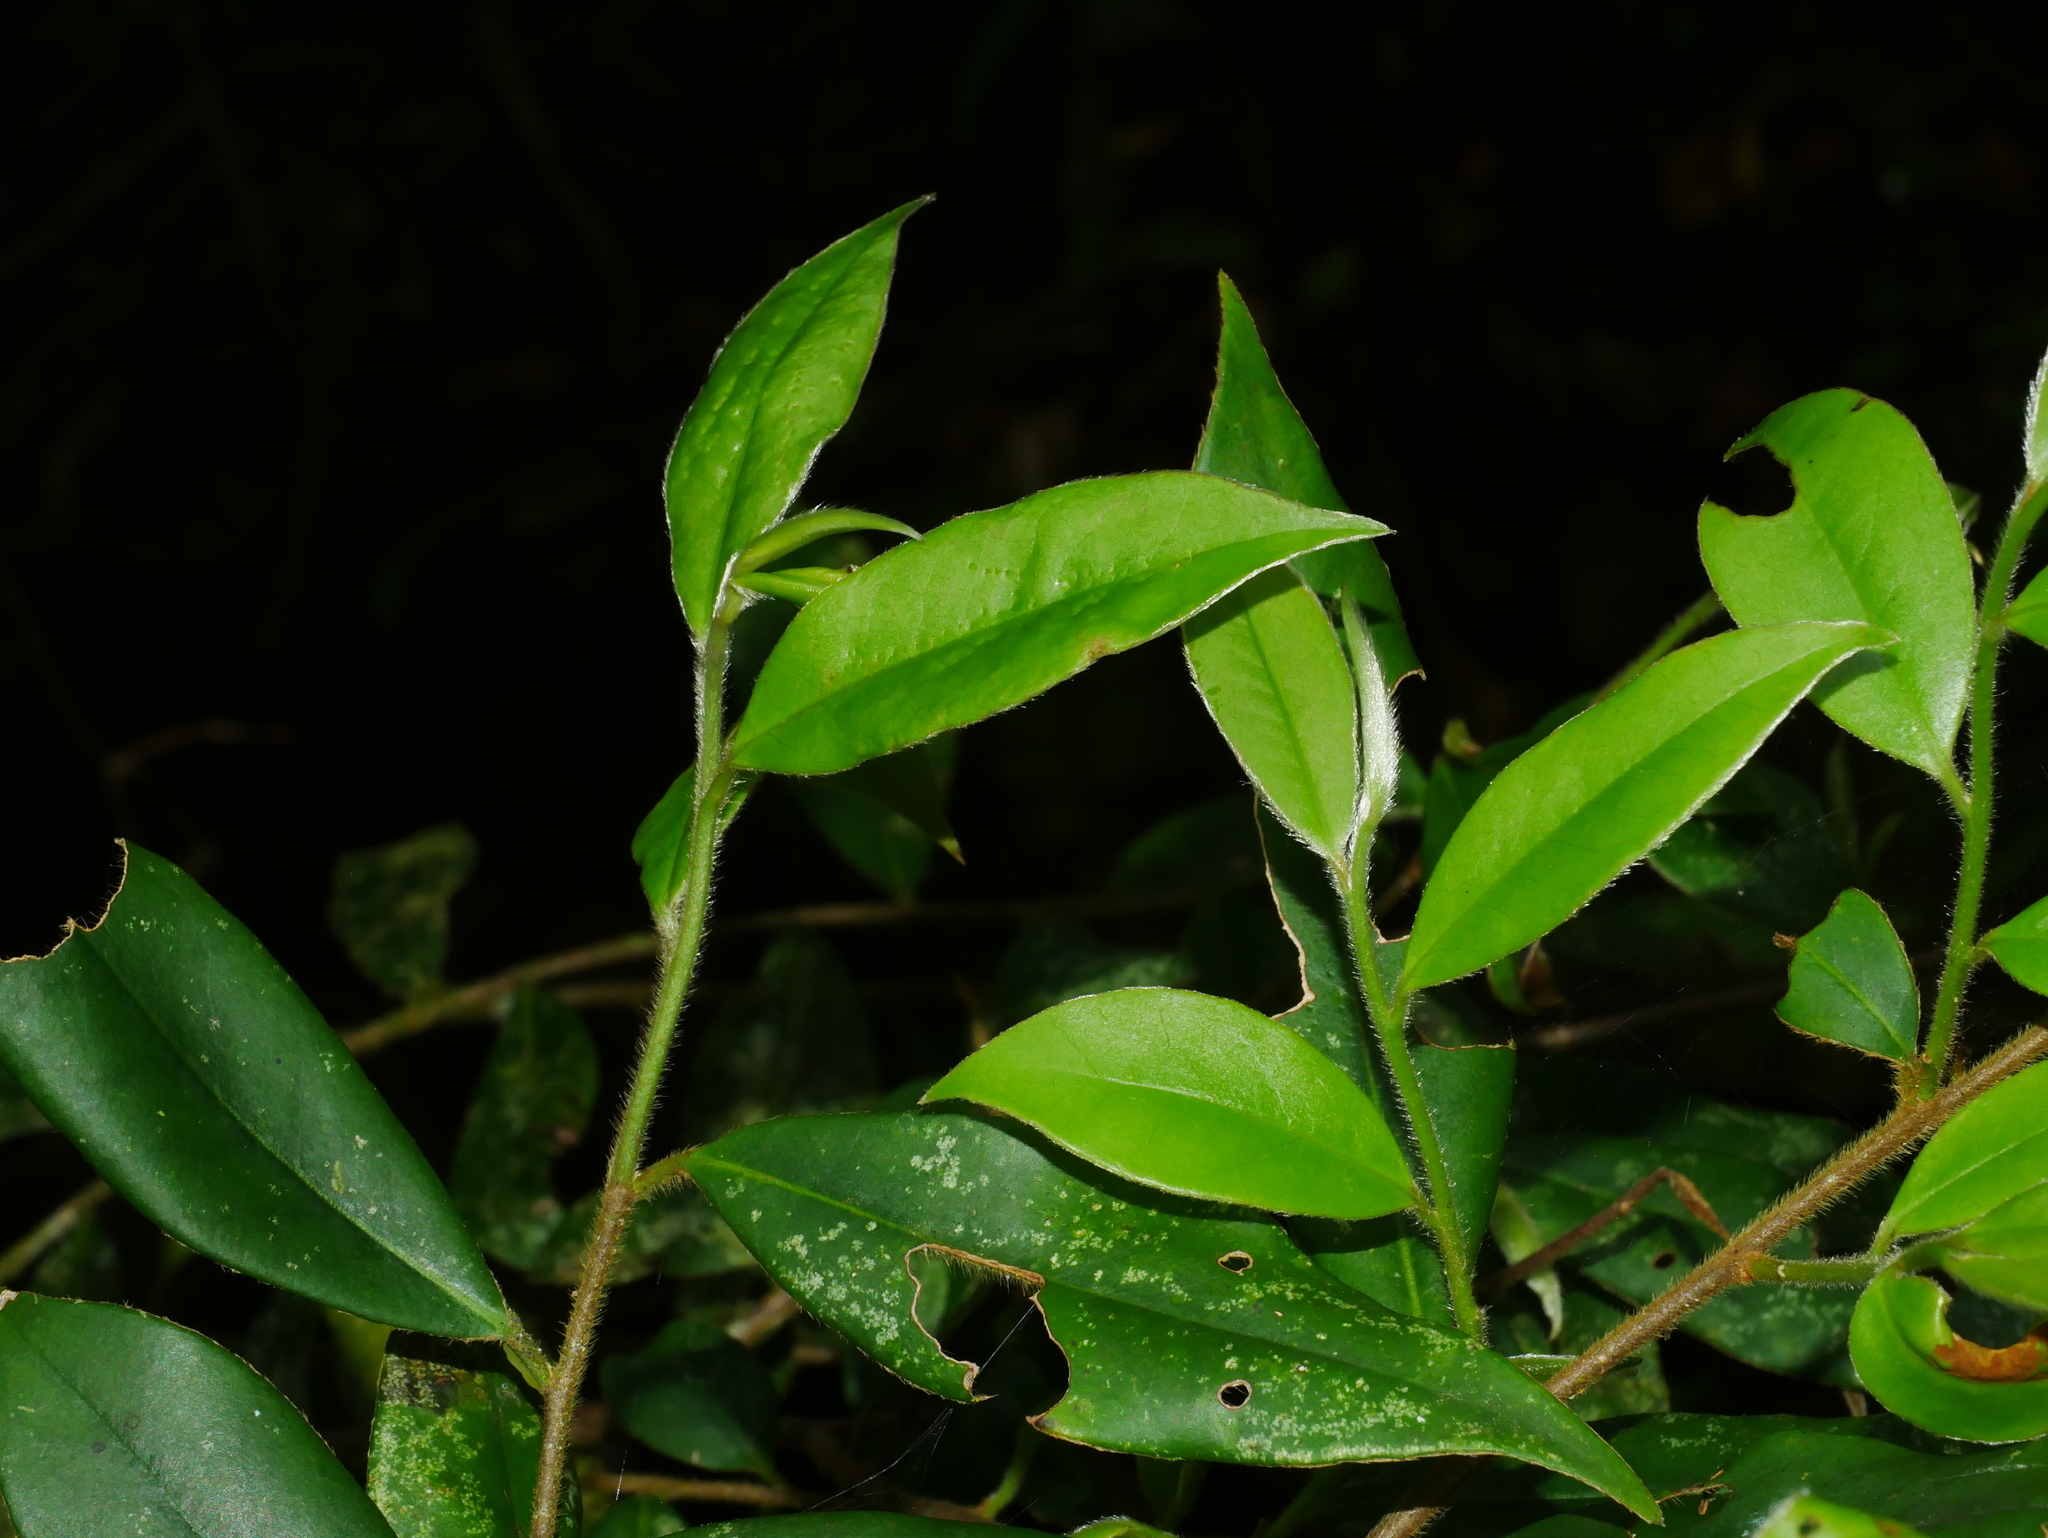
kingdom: Plantae
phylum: Tracheophyta
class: Magnoliopsida
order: Ericales
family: Pentaphylacaceae
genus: Adinandra
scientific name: Adinandra lasiostyla
